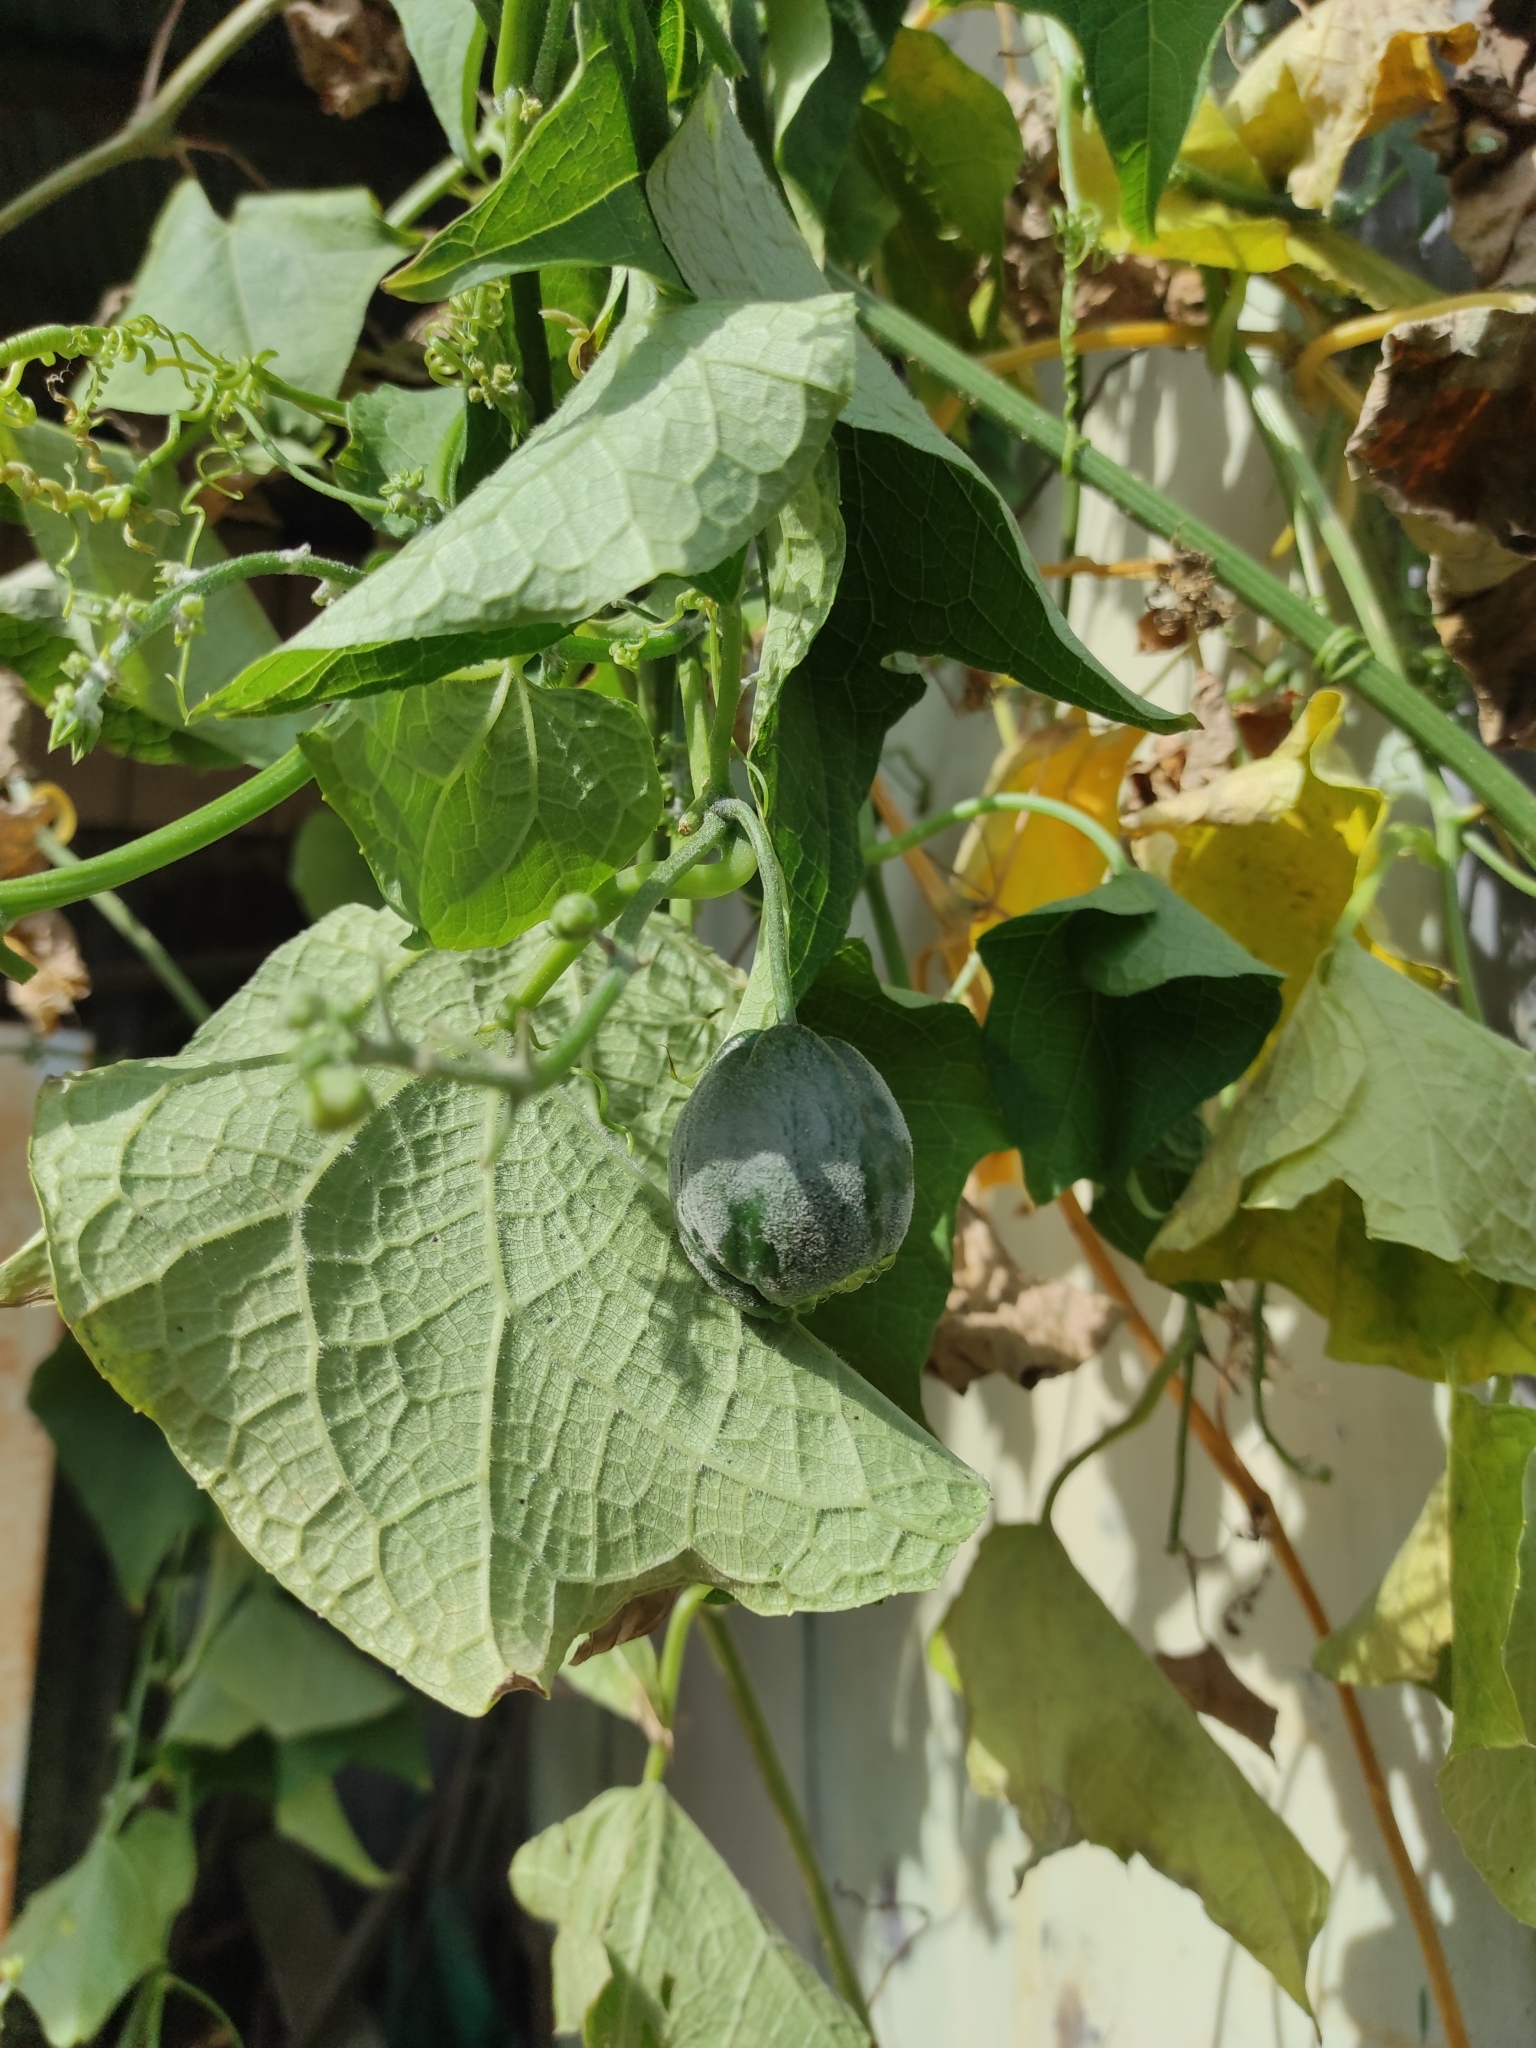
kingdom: Plantae
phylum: Tracheophyta
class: Magnoliopsida
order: Cucurbitales
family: Cucurbitaceae
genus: Sechium
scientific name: Sechium edule
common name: Chayote
